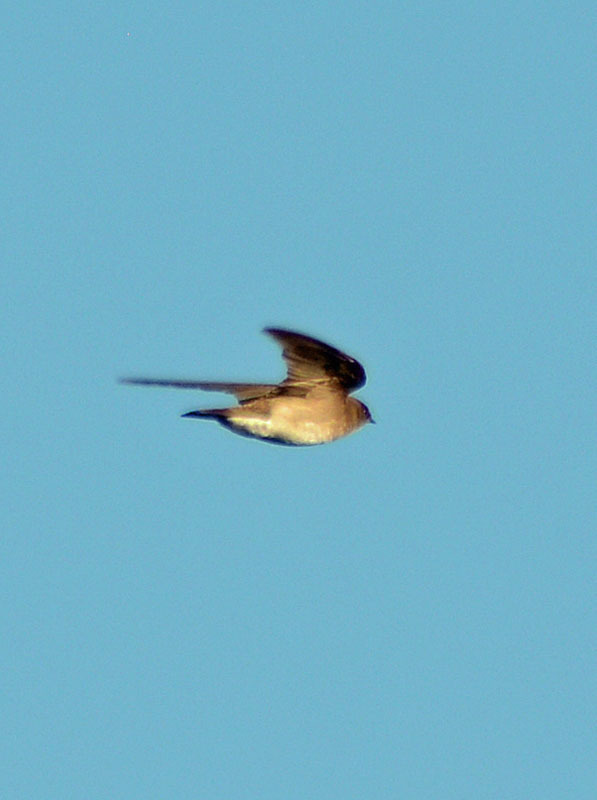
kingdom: Animalia
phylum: Chordata
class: Aves
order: Passeriformes
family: Hirundinidae
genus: Stelgidopteryx
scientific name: Stelgidopteryx serripennis
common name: Northern rough-winged swallow
